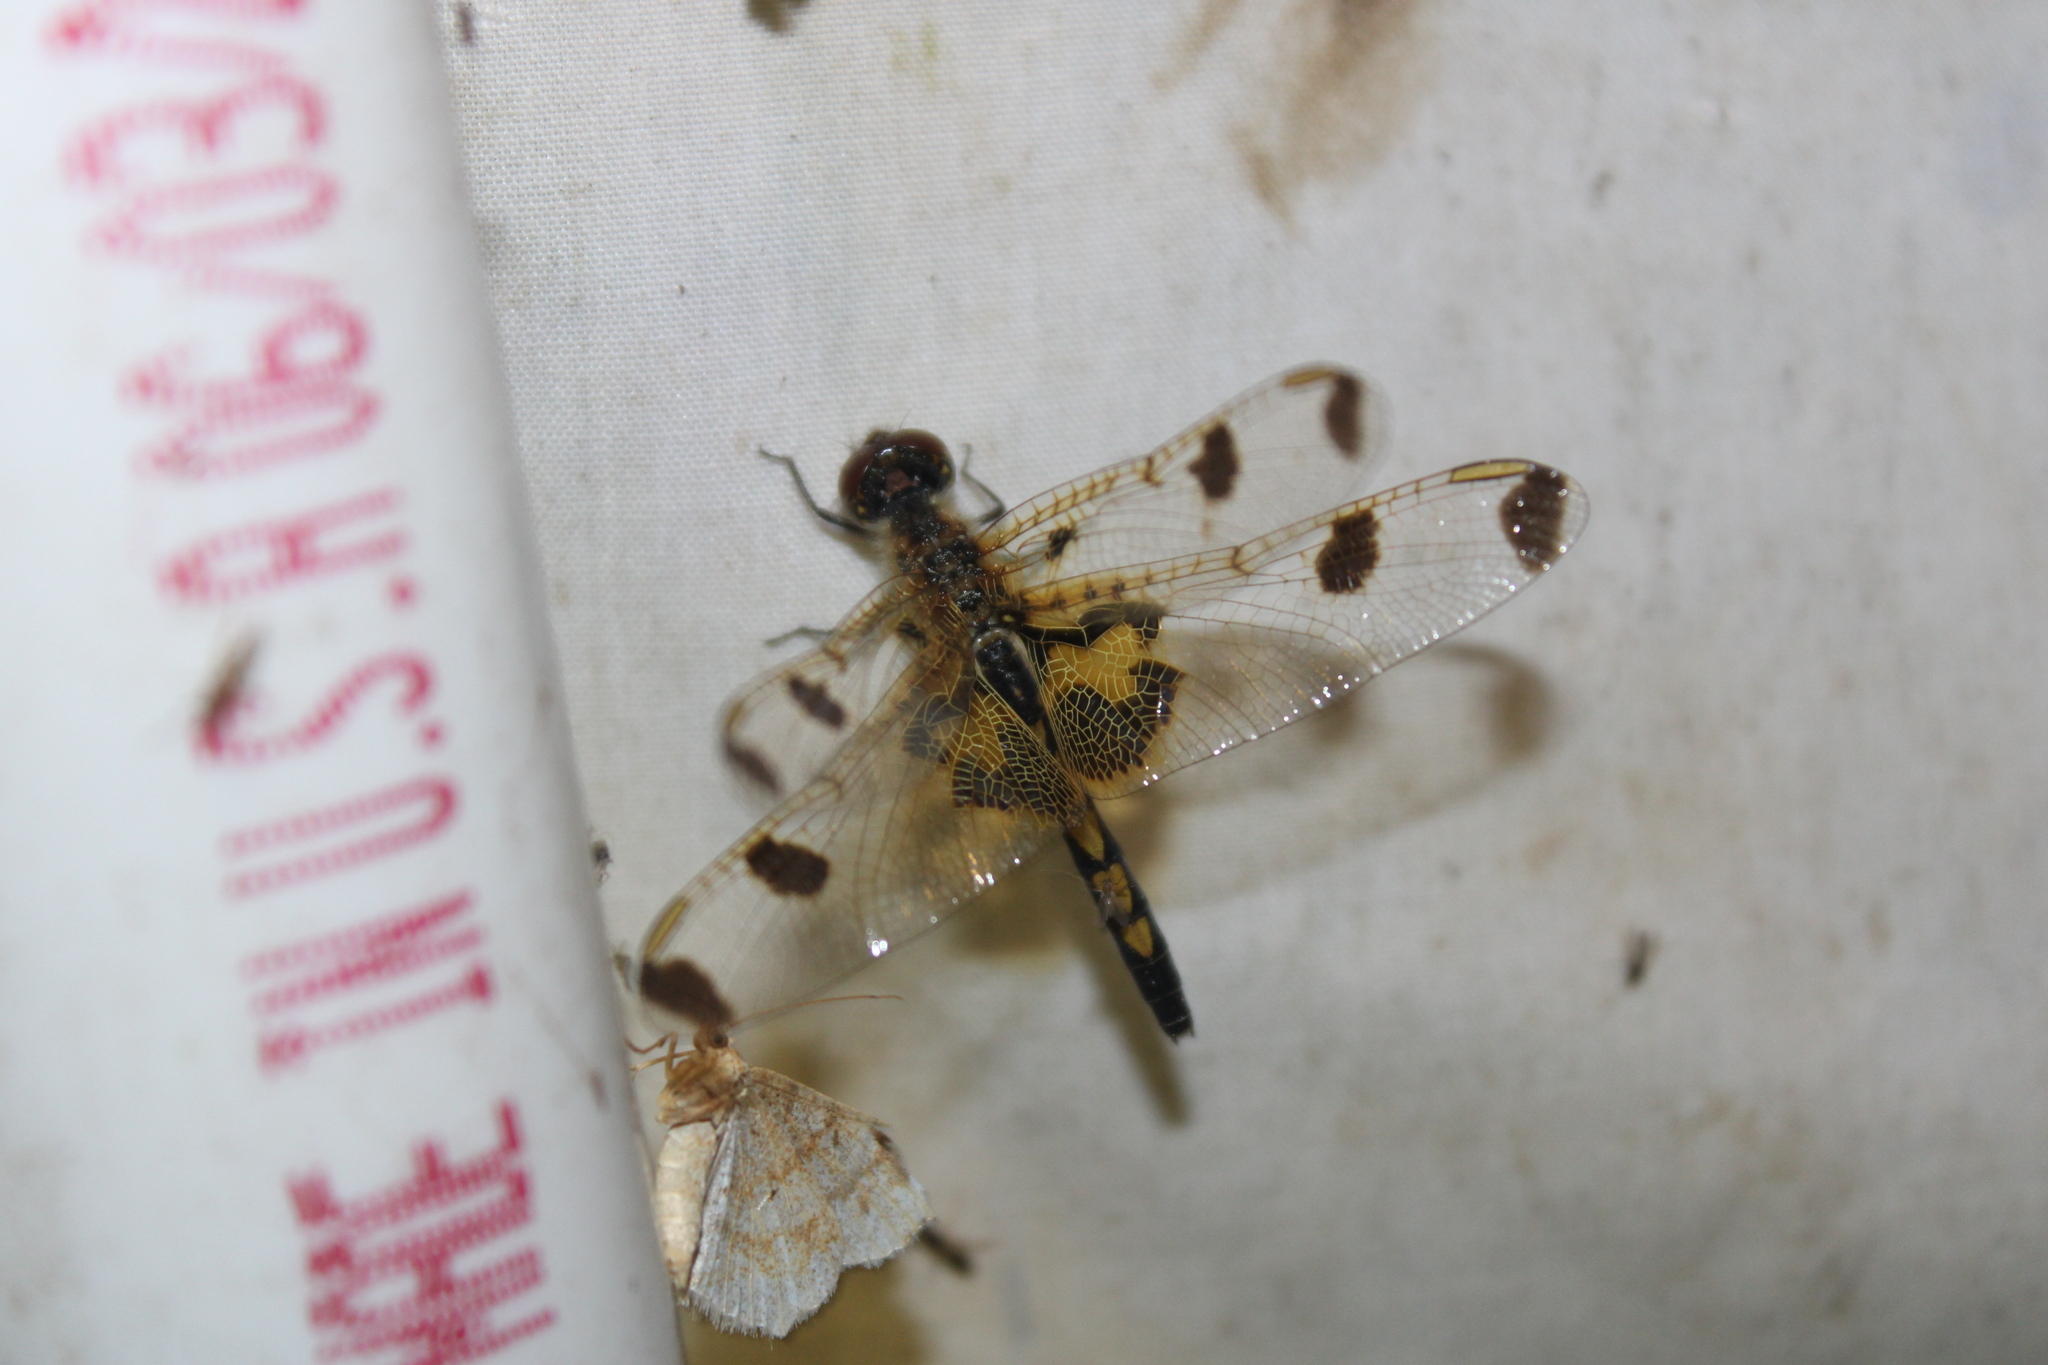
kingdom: Animalia
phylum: Arthropoda
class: Insecta
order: Odonata
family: Libellulidae
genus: Celithemis
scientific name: Celithemis elisa
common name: Calico pennant
